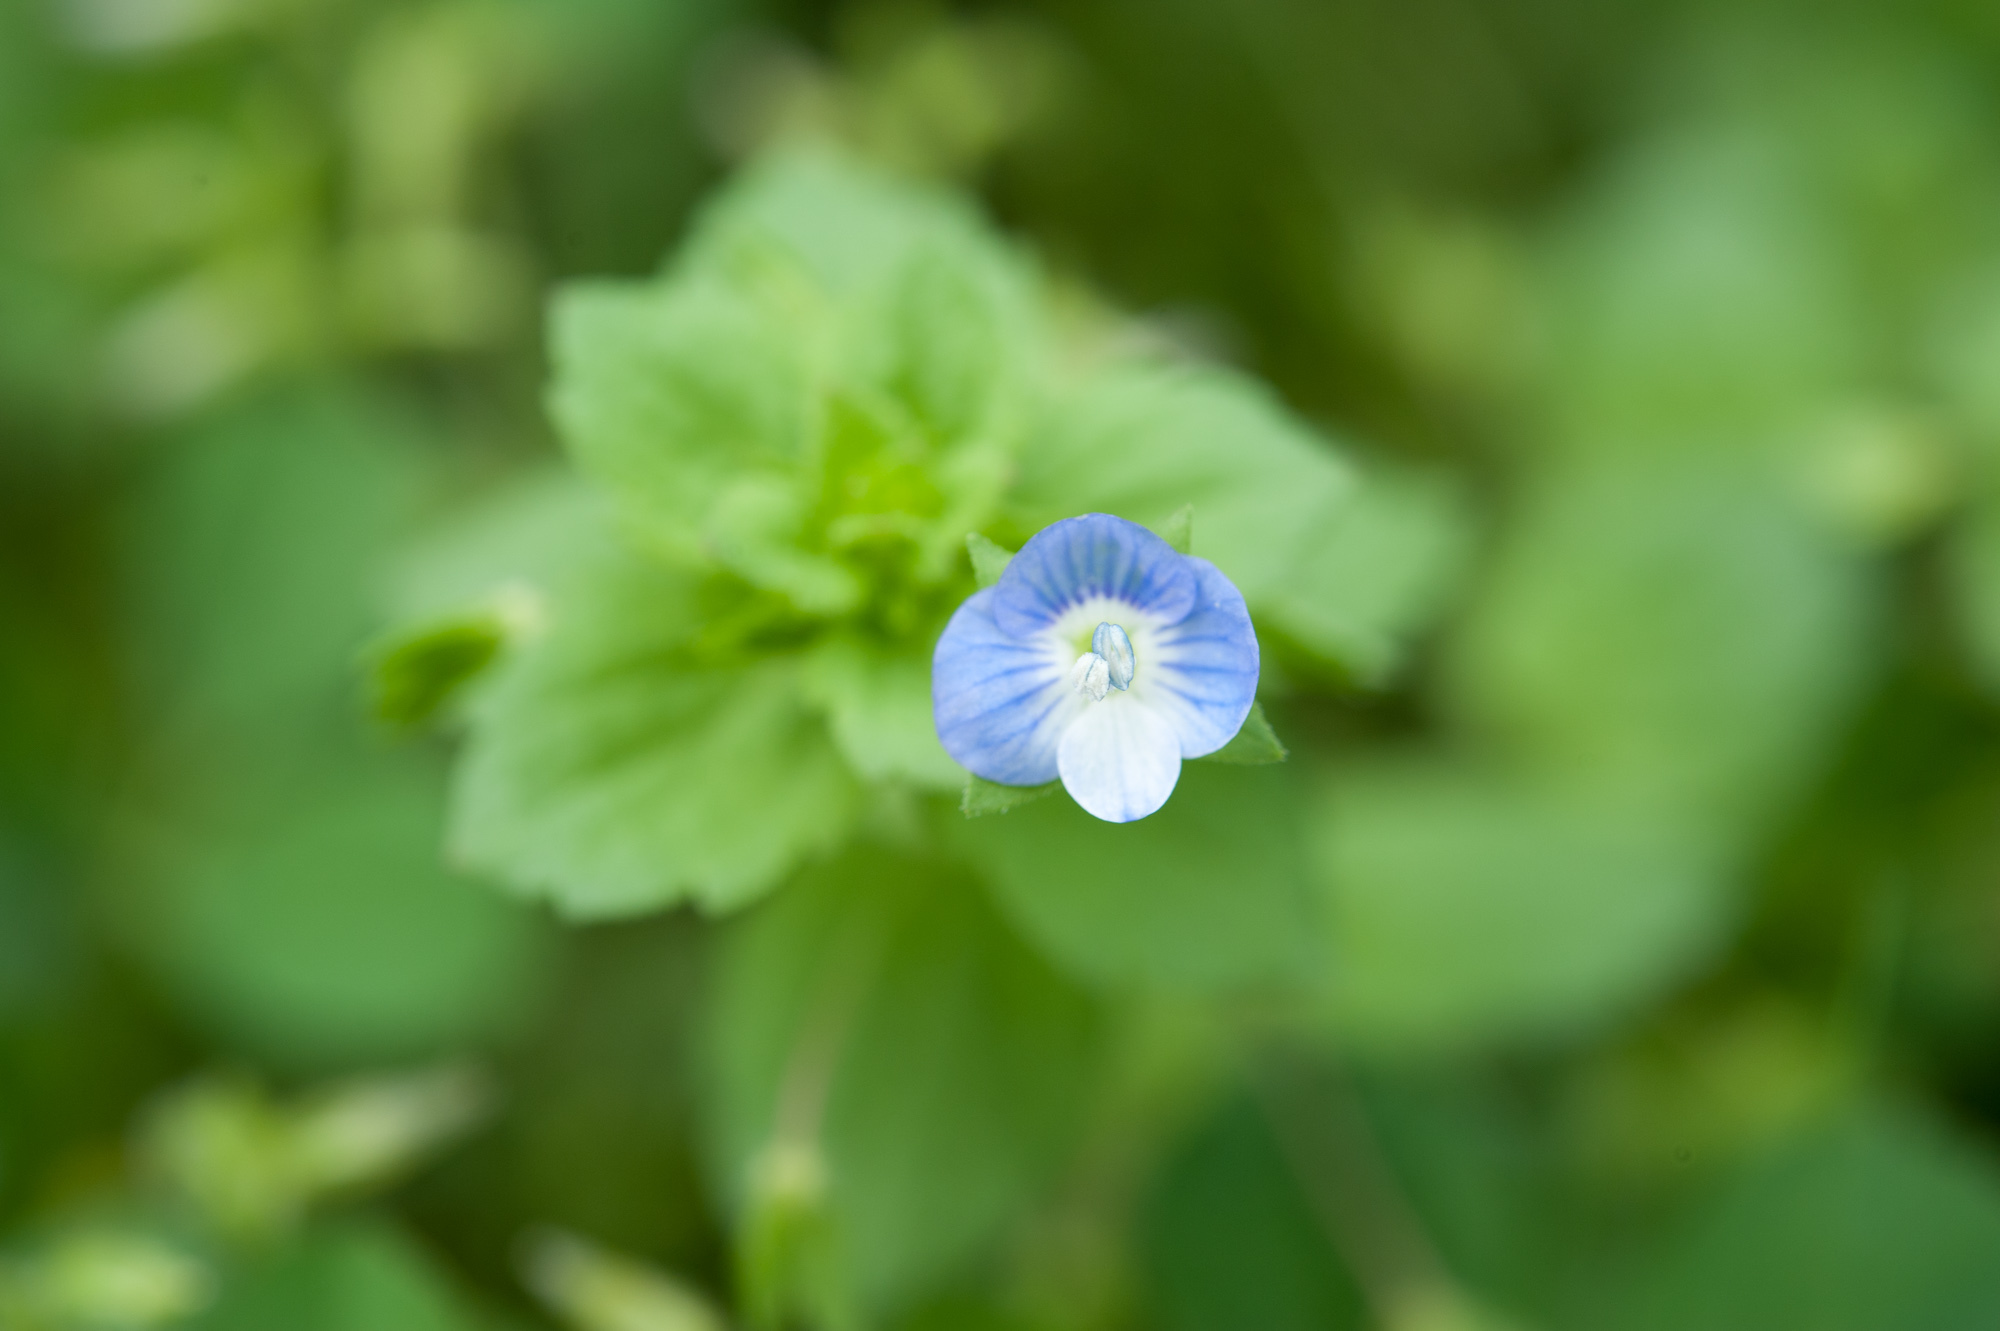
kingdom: Plantae
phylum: Tracheophyta
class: Magnoliopsida
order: Lamiales
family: Plantaginaceae
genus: Veronica
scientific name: Veronica persica
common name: Common field-speedwell
